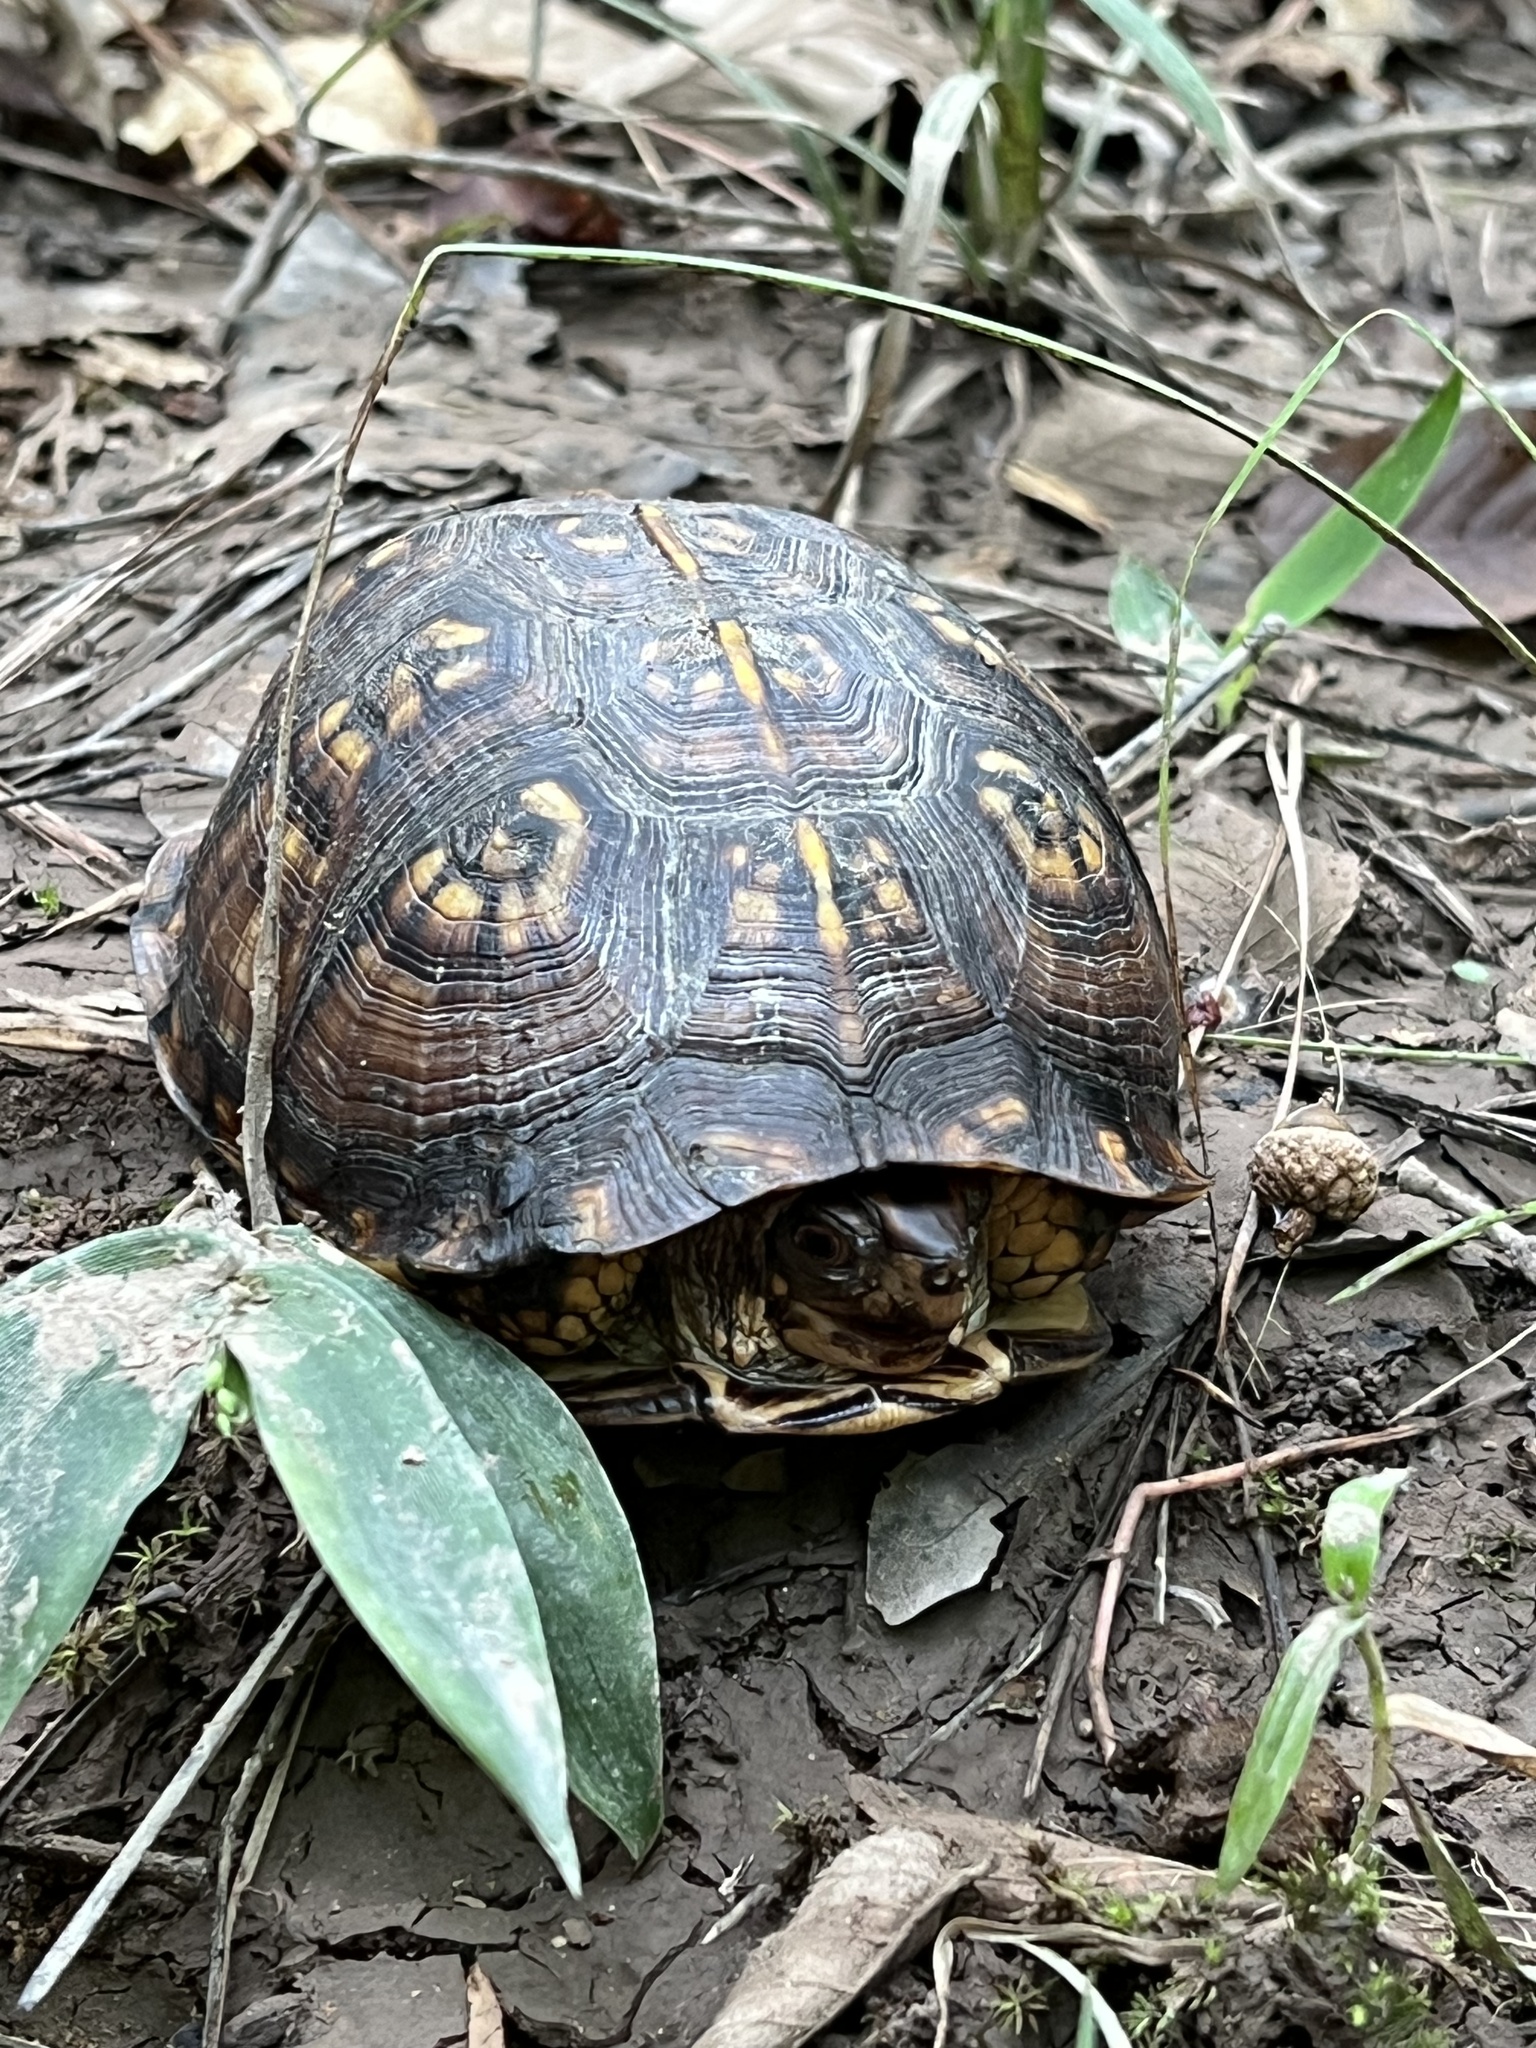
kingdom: Animalia
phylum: Chordata
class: Testudines
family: Emydidae
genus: Terrapene
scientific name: Terrapene carolina
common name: Common box turtle
